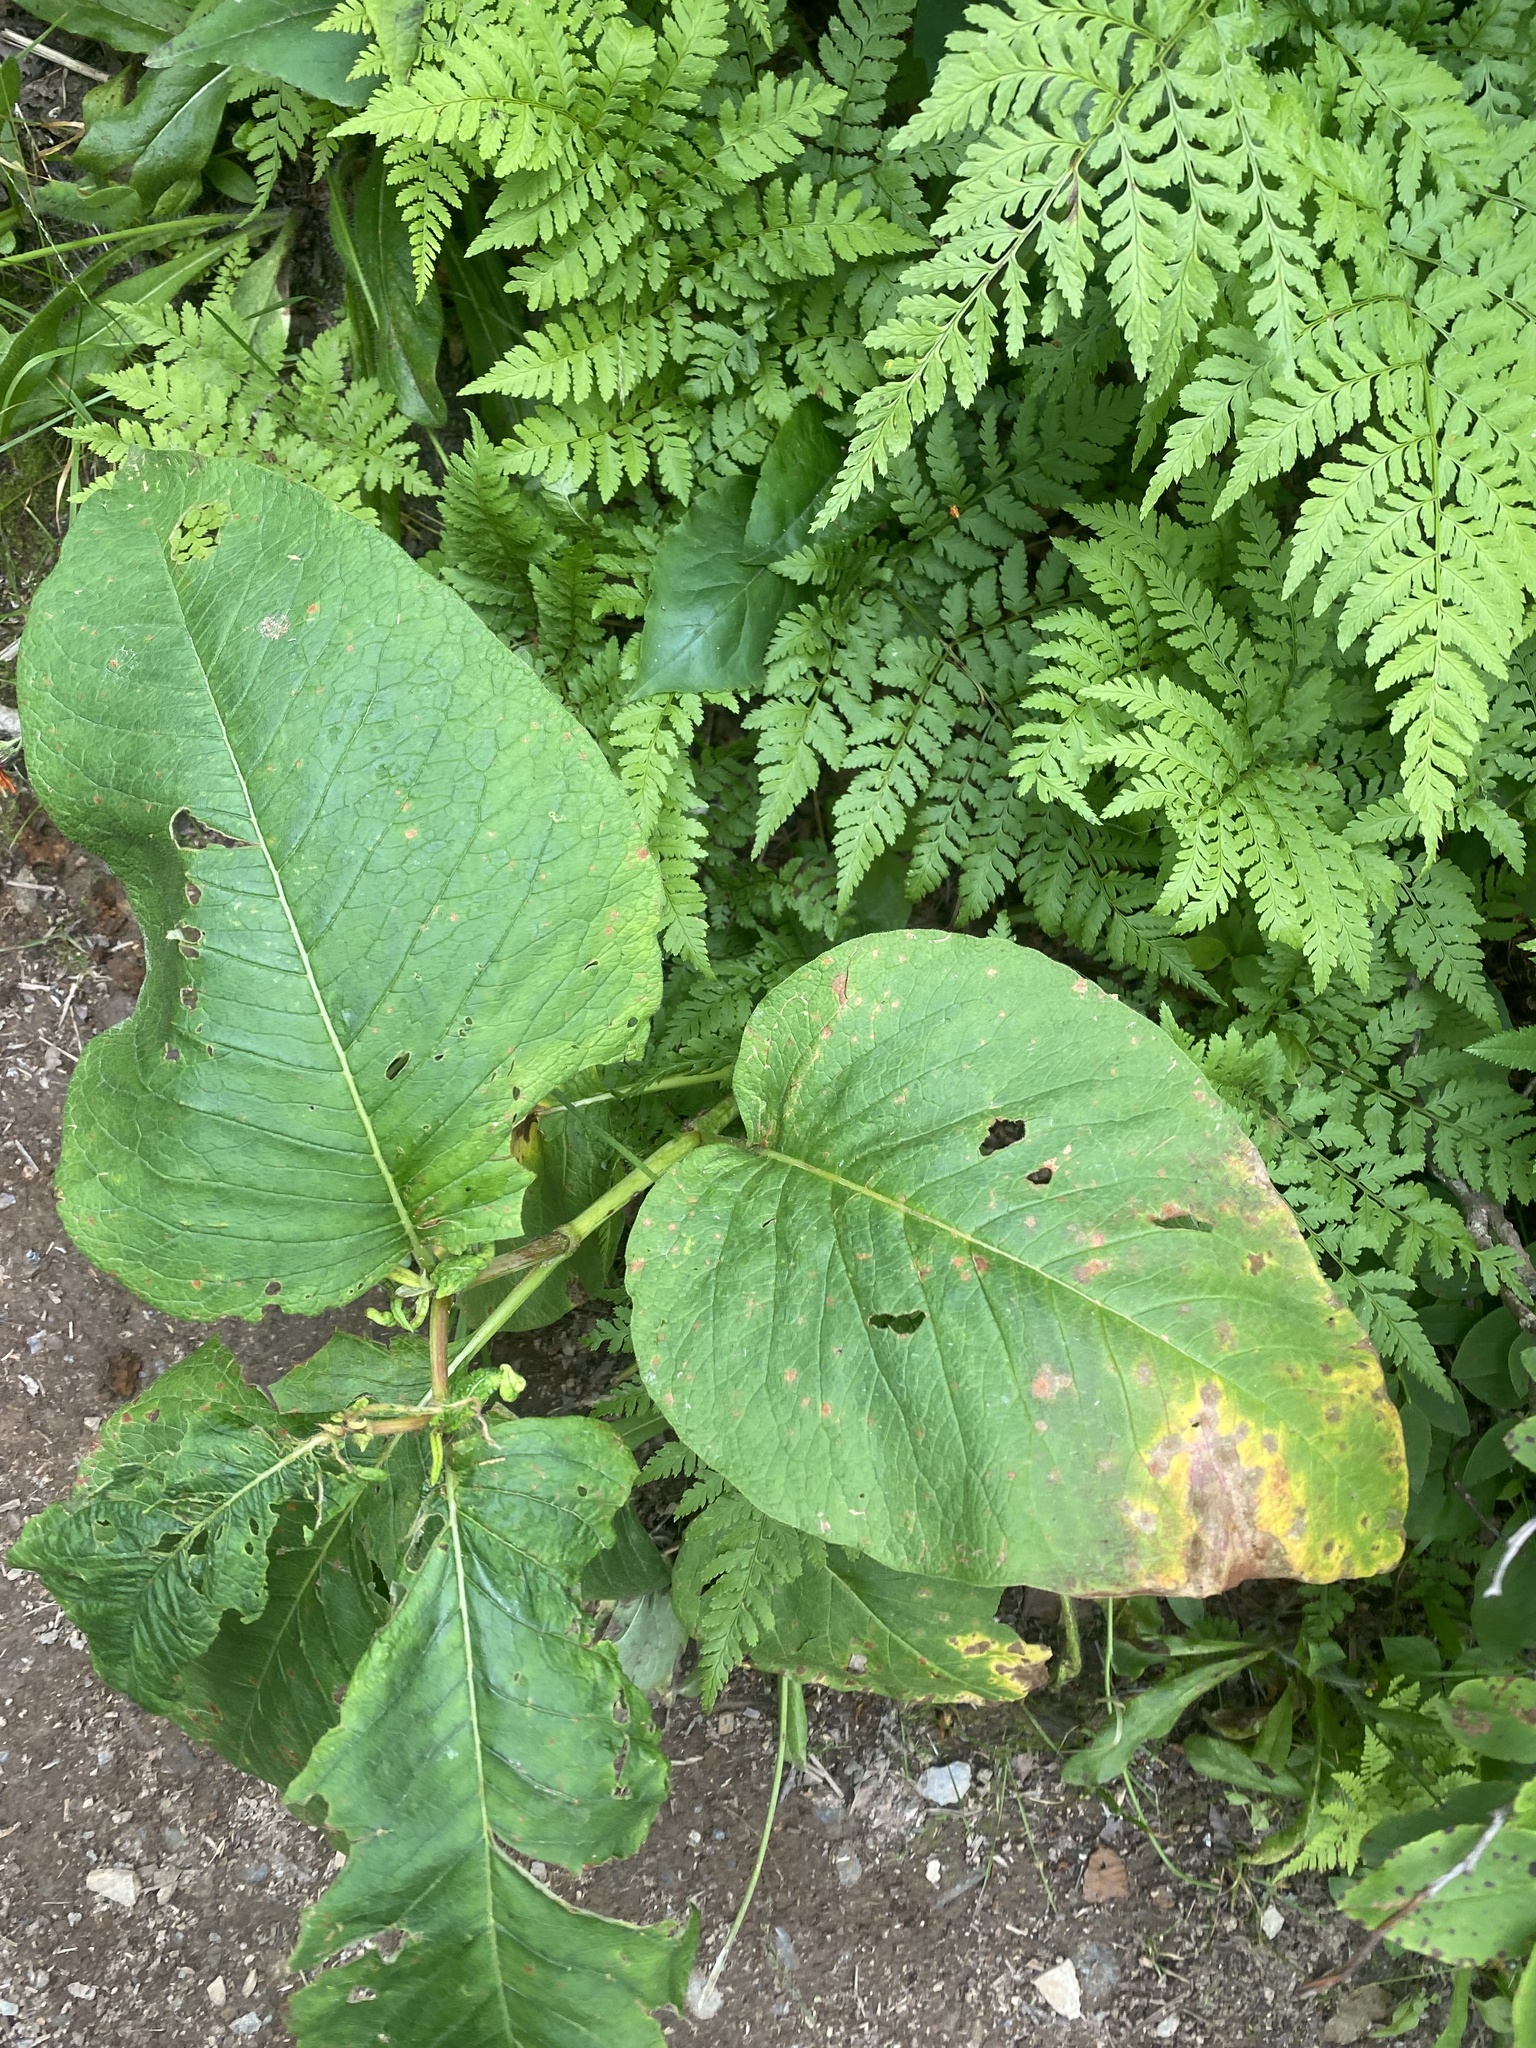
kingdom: Plantae
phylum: Tracheophyta
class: Magnoliopsida
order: Caryophyllales
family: Polygonaceae
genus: Koenigia
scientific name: Koenigia weyrichii
